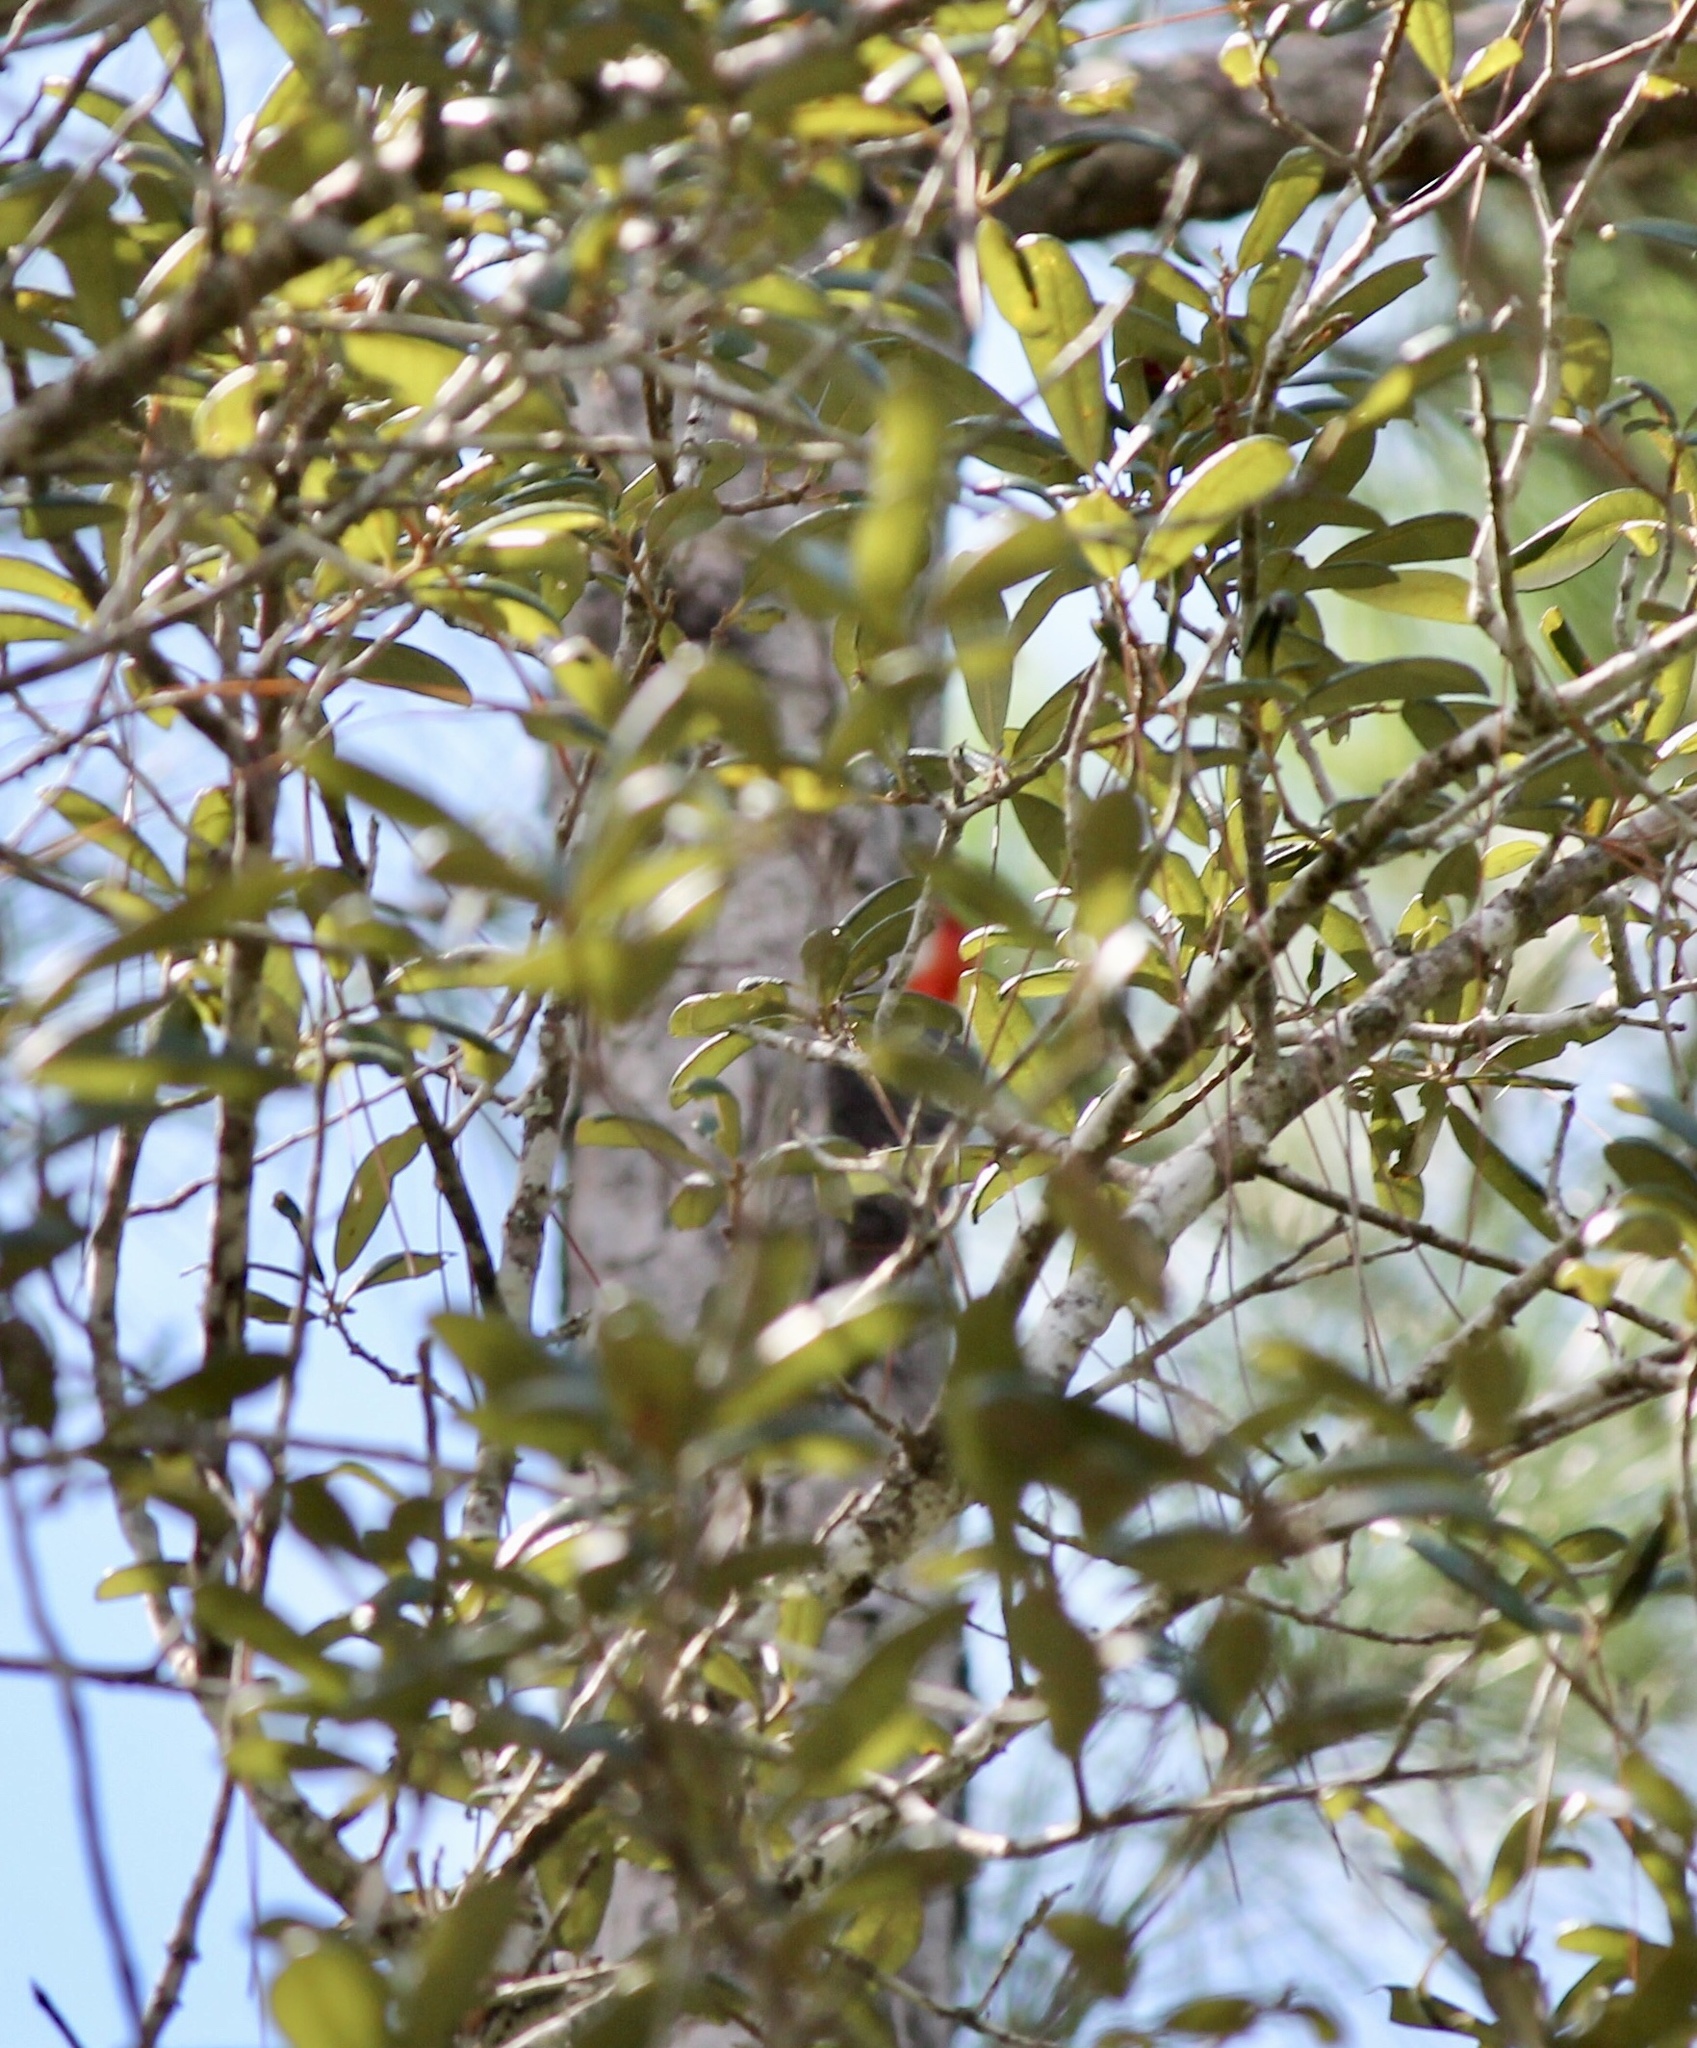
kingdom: Animalia
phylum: Chordata
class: Aves
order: Piciformes
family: Picidae
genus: Melanerpes
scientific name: Melanerpes carolinus
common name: Red-bellied woodpecker
